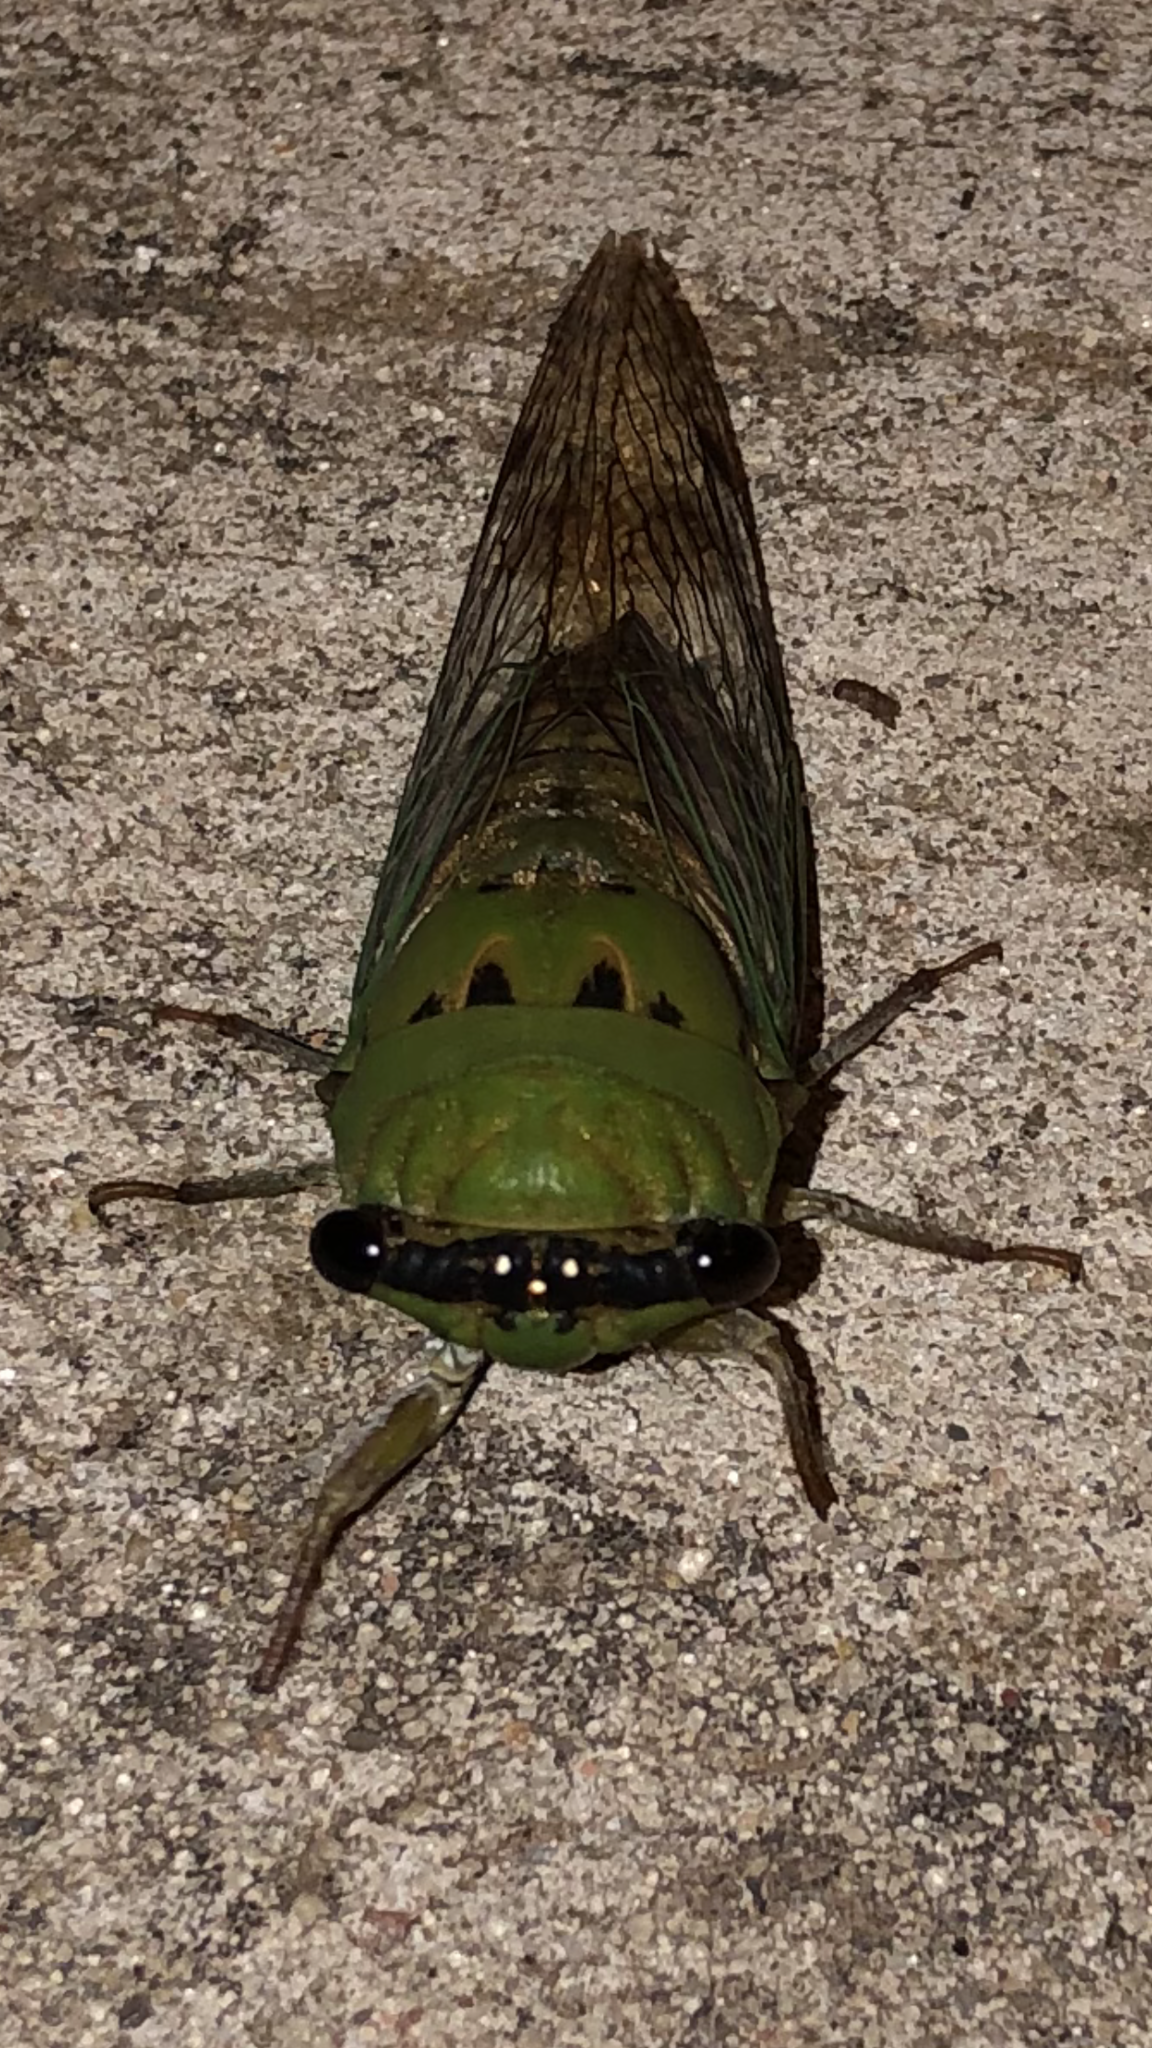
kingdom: Animalia
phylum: Arthropoda
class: Insecta
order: Hemiptera
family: Cicadidae
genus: Neotibicen
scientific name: Neotibicen superbus
